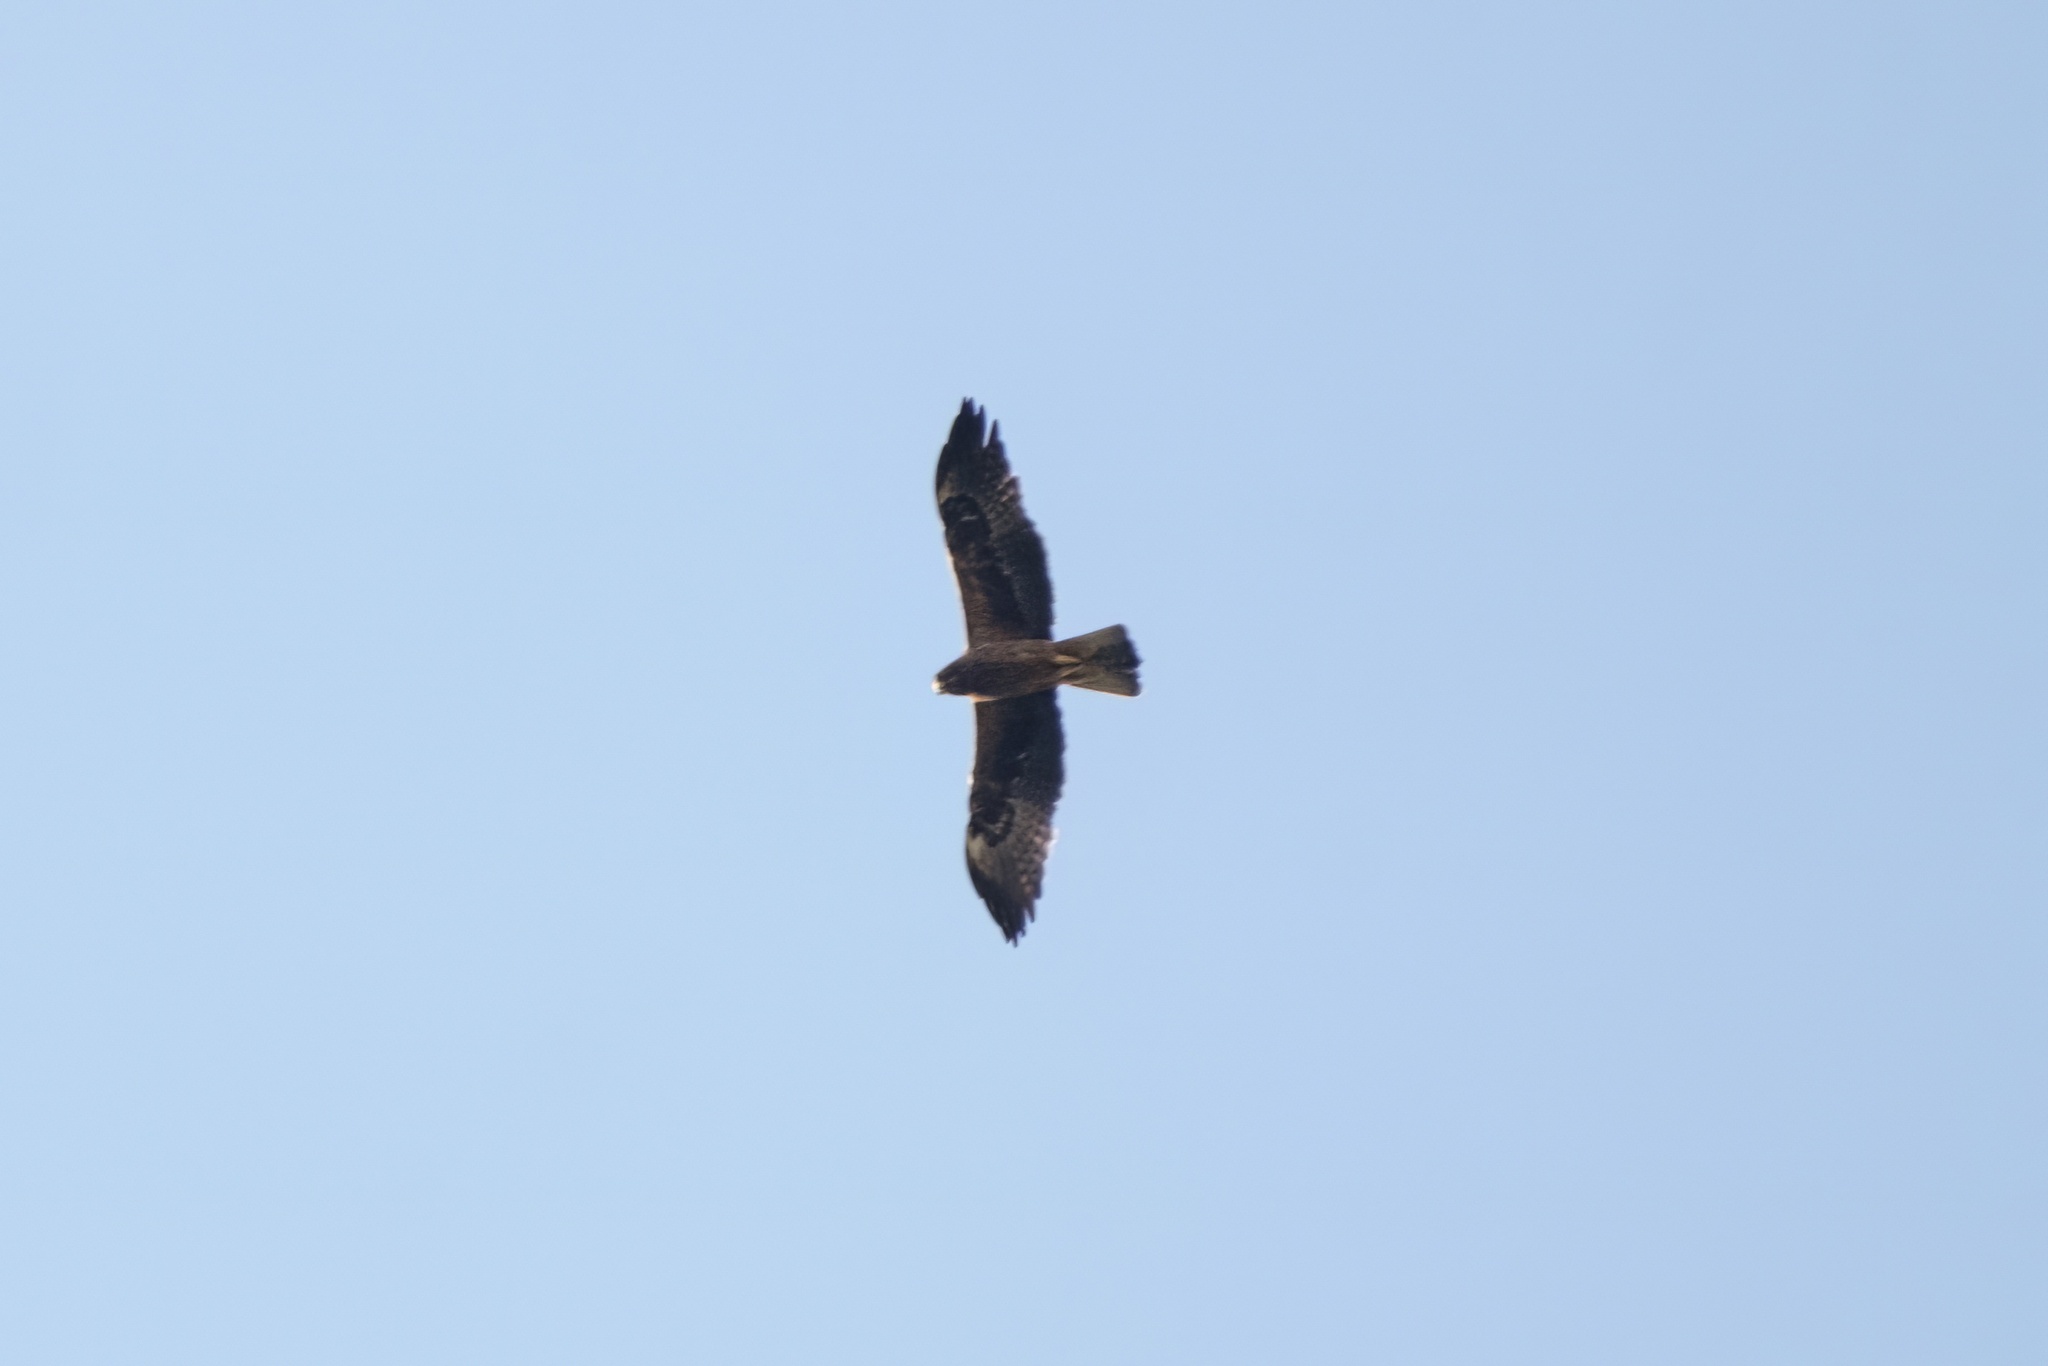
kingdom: Animalia
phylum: Chordata
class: Aves
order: Accipitriformes
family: Accipitridae
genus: Hieraaetus
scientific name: Hieraaetus pennatus
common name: Booted eagle
